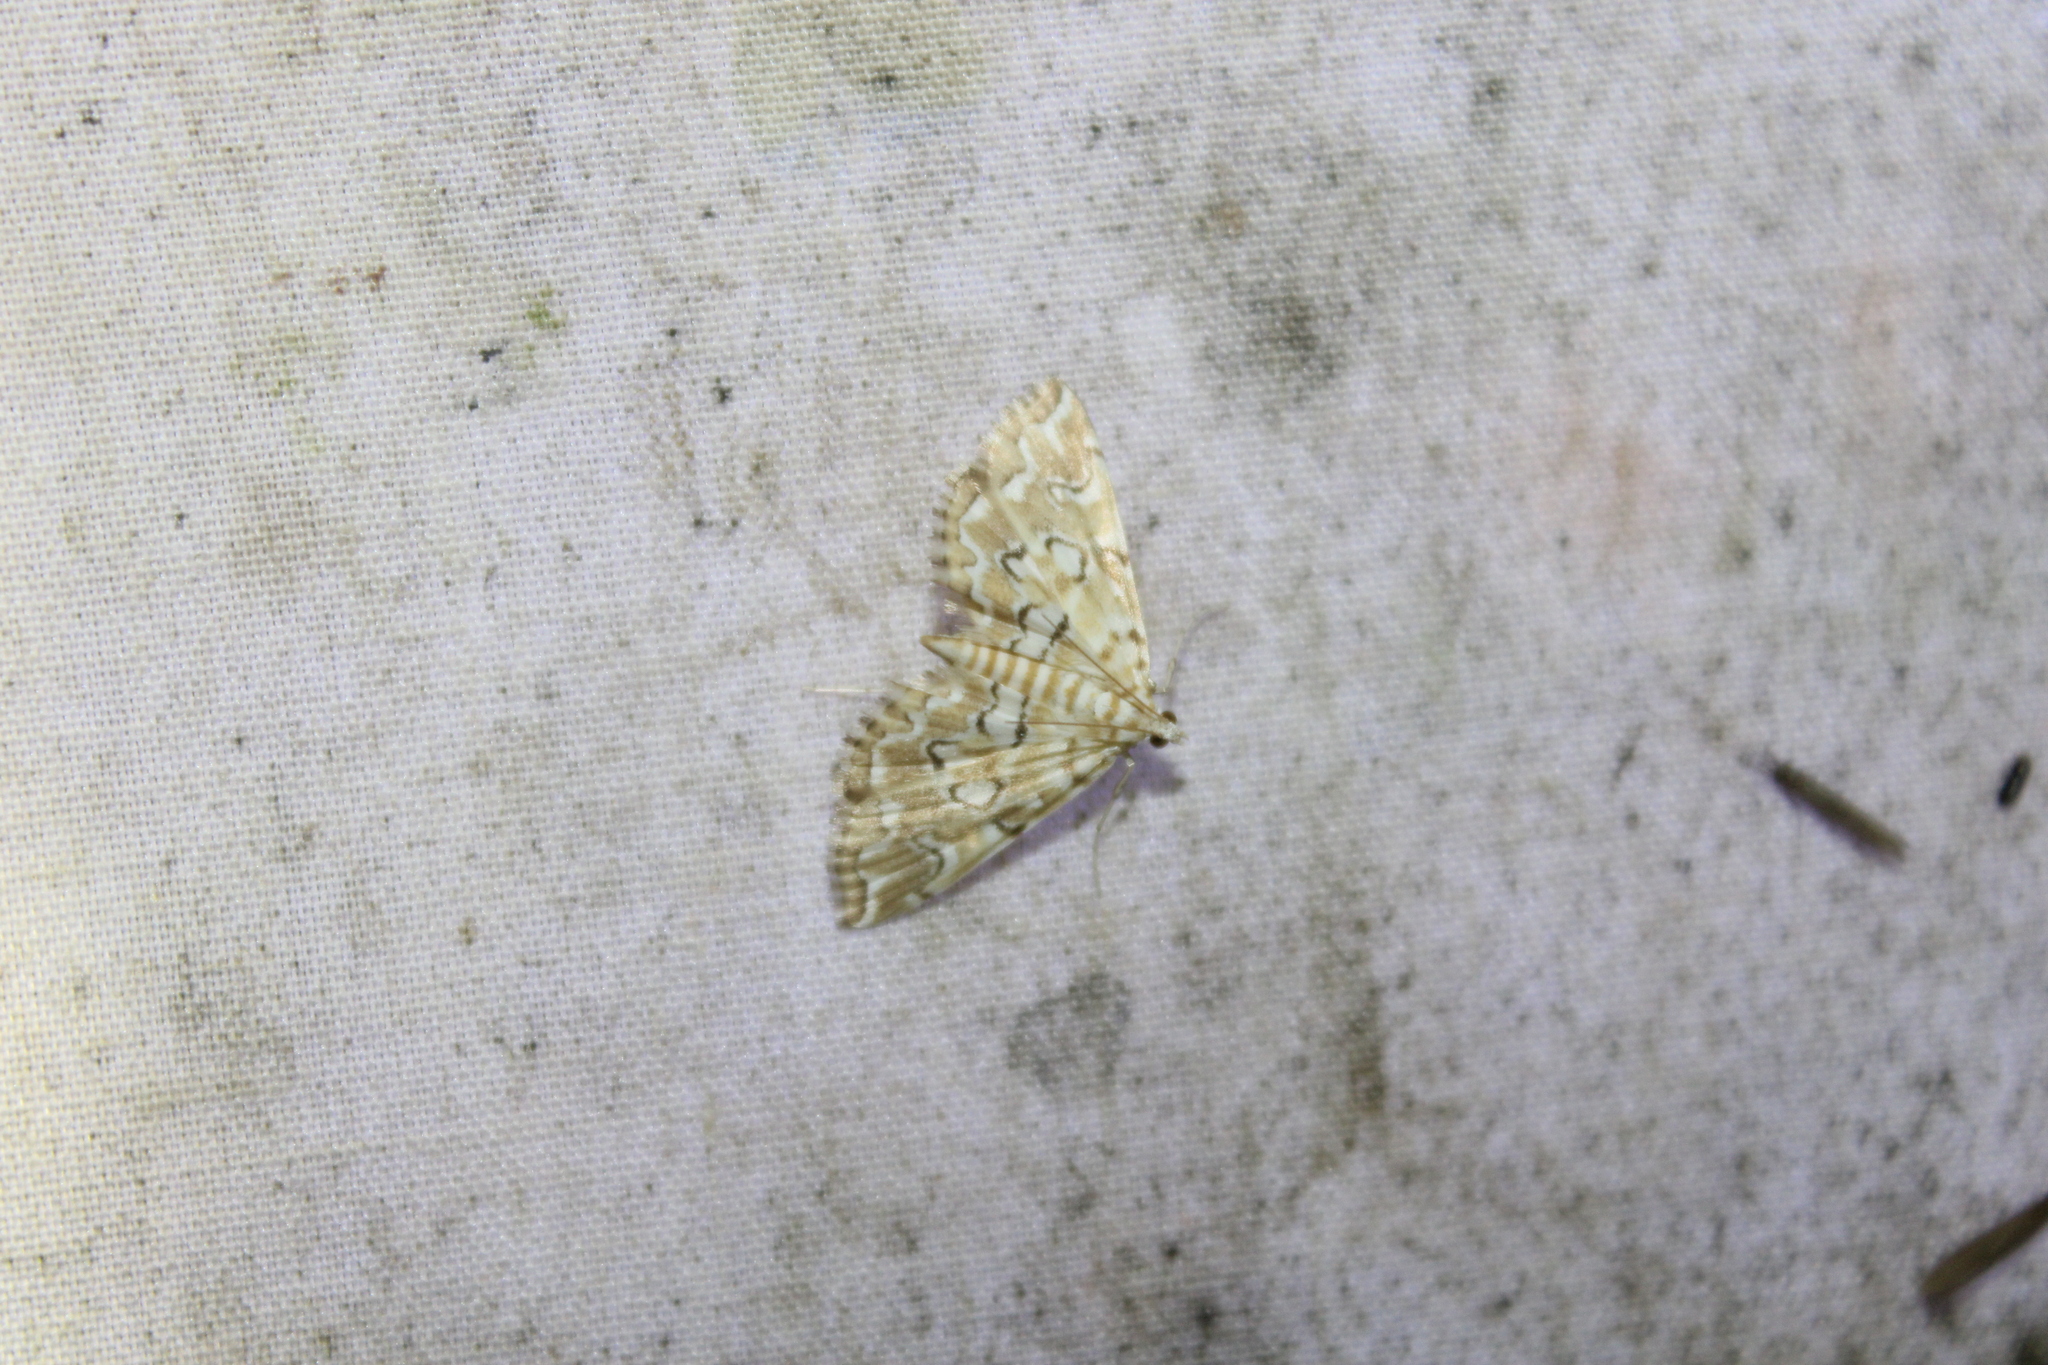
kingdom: Animalia
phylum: Arthropoda
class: Insecta
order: Lepidoptera
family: Crambidae
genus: Elophila
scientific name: Elophila icciusalis
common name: Pondside pyralid moth
